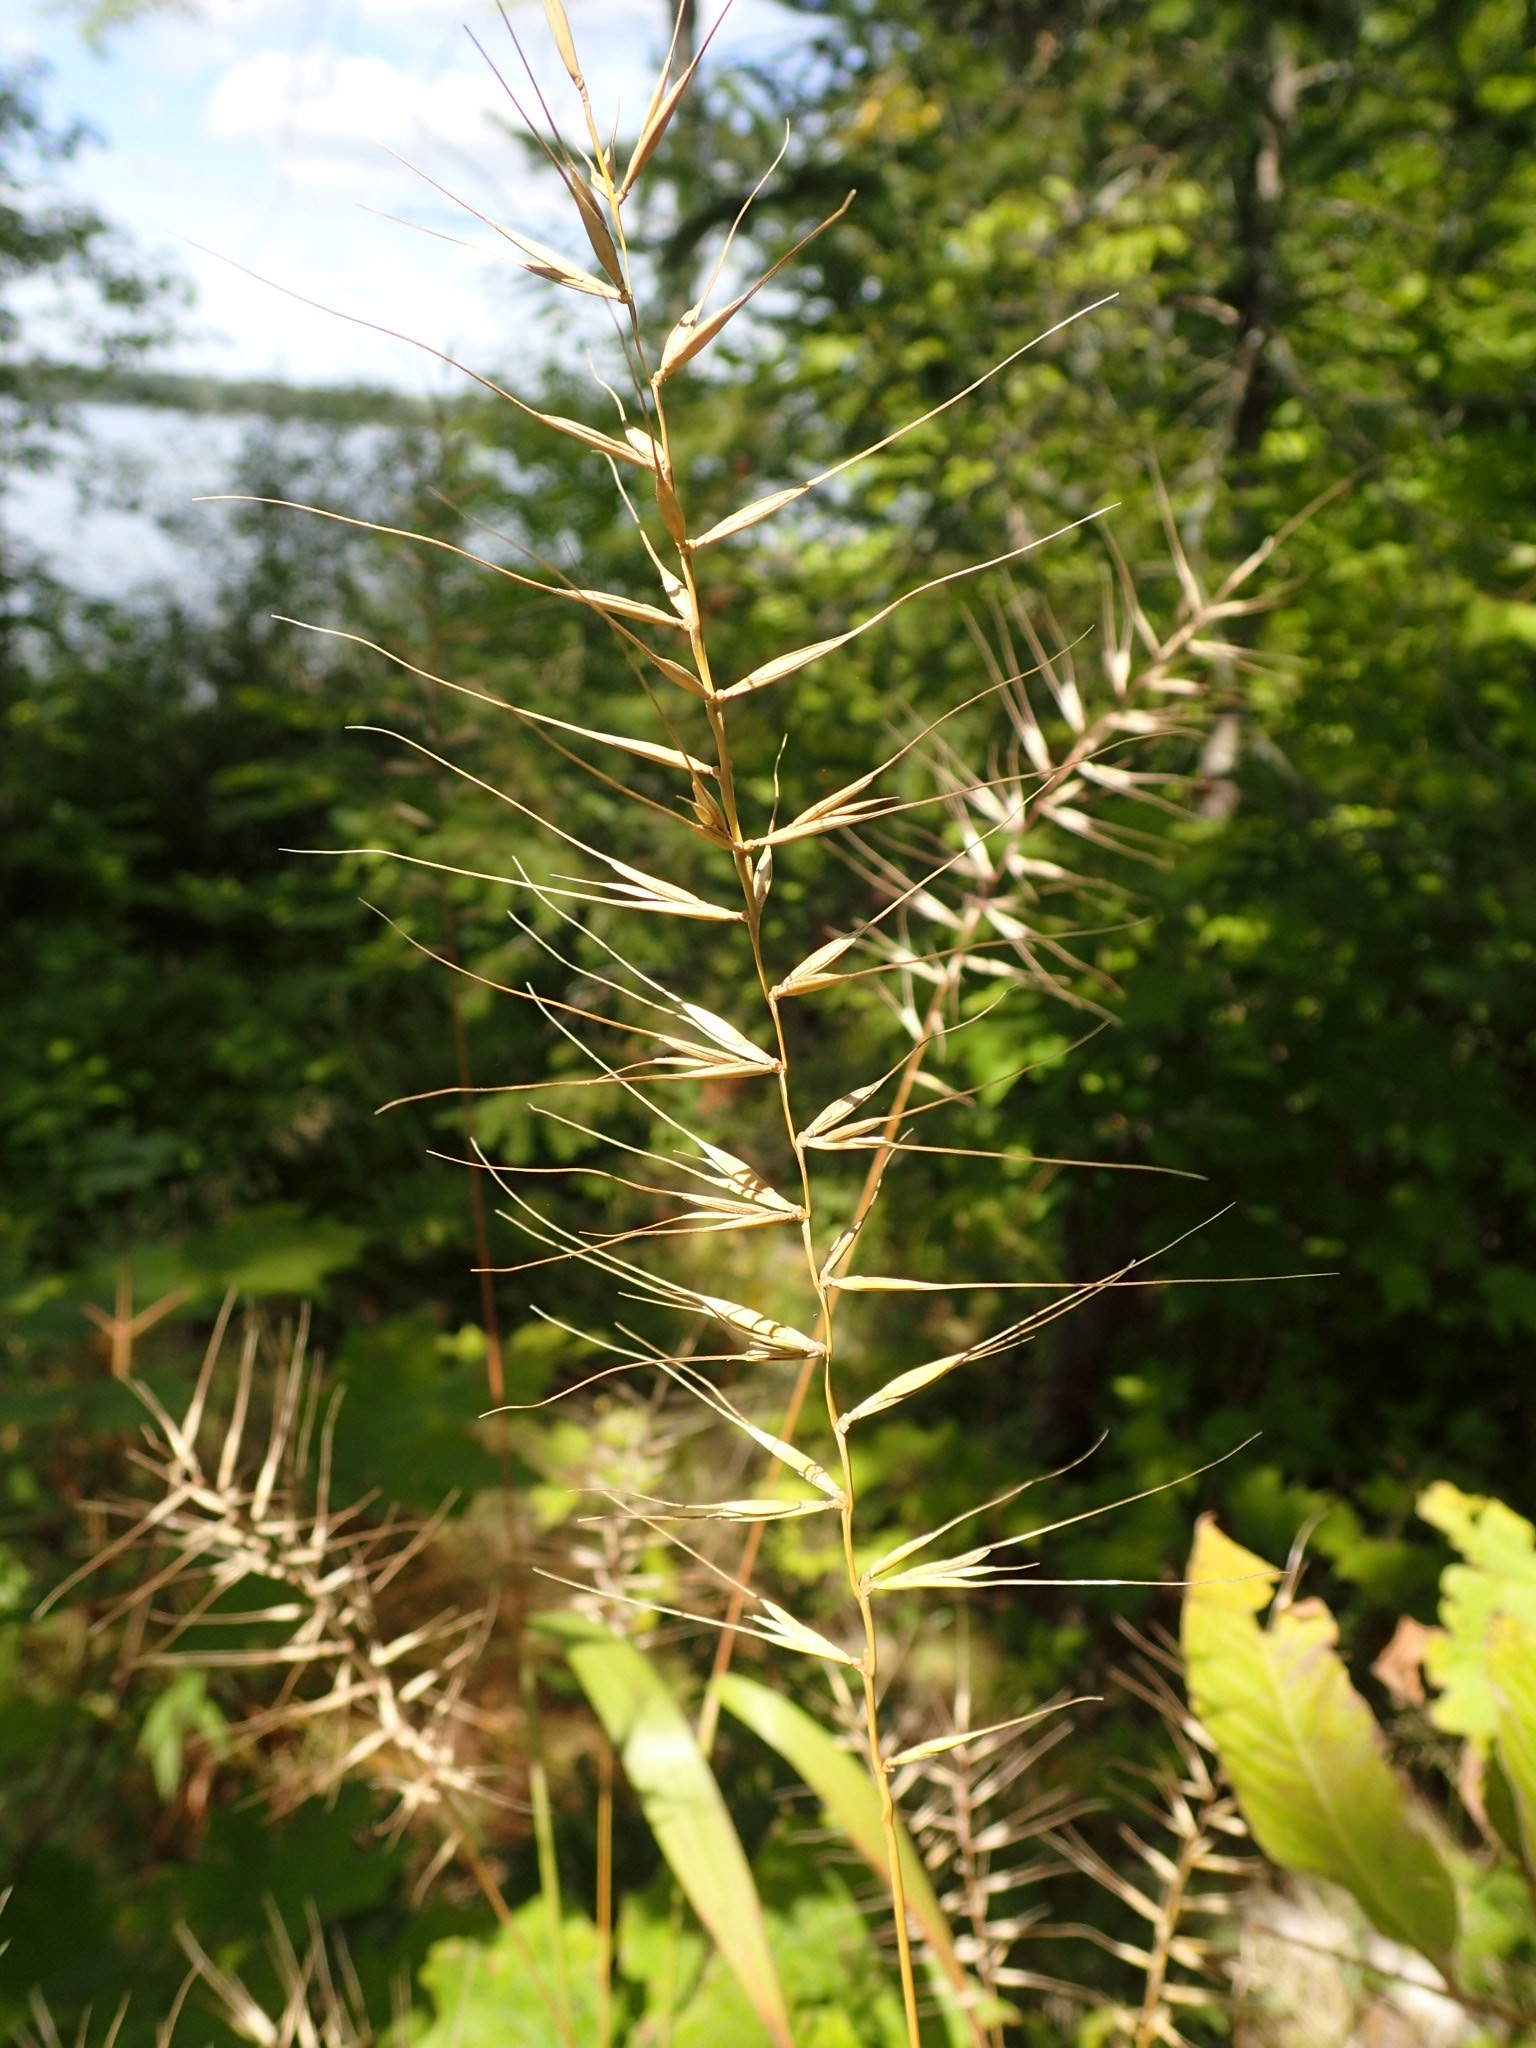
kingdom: Plantae
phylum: Tracheophyta
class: Liliopsida
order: Poales
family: Poaceae
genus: Elymus
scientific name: Elymus hystrix
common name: Bottlebrush grass
